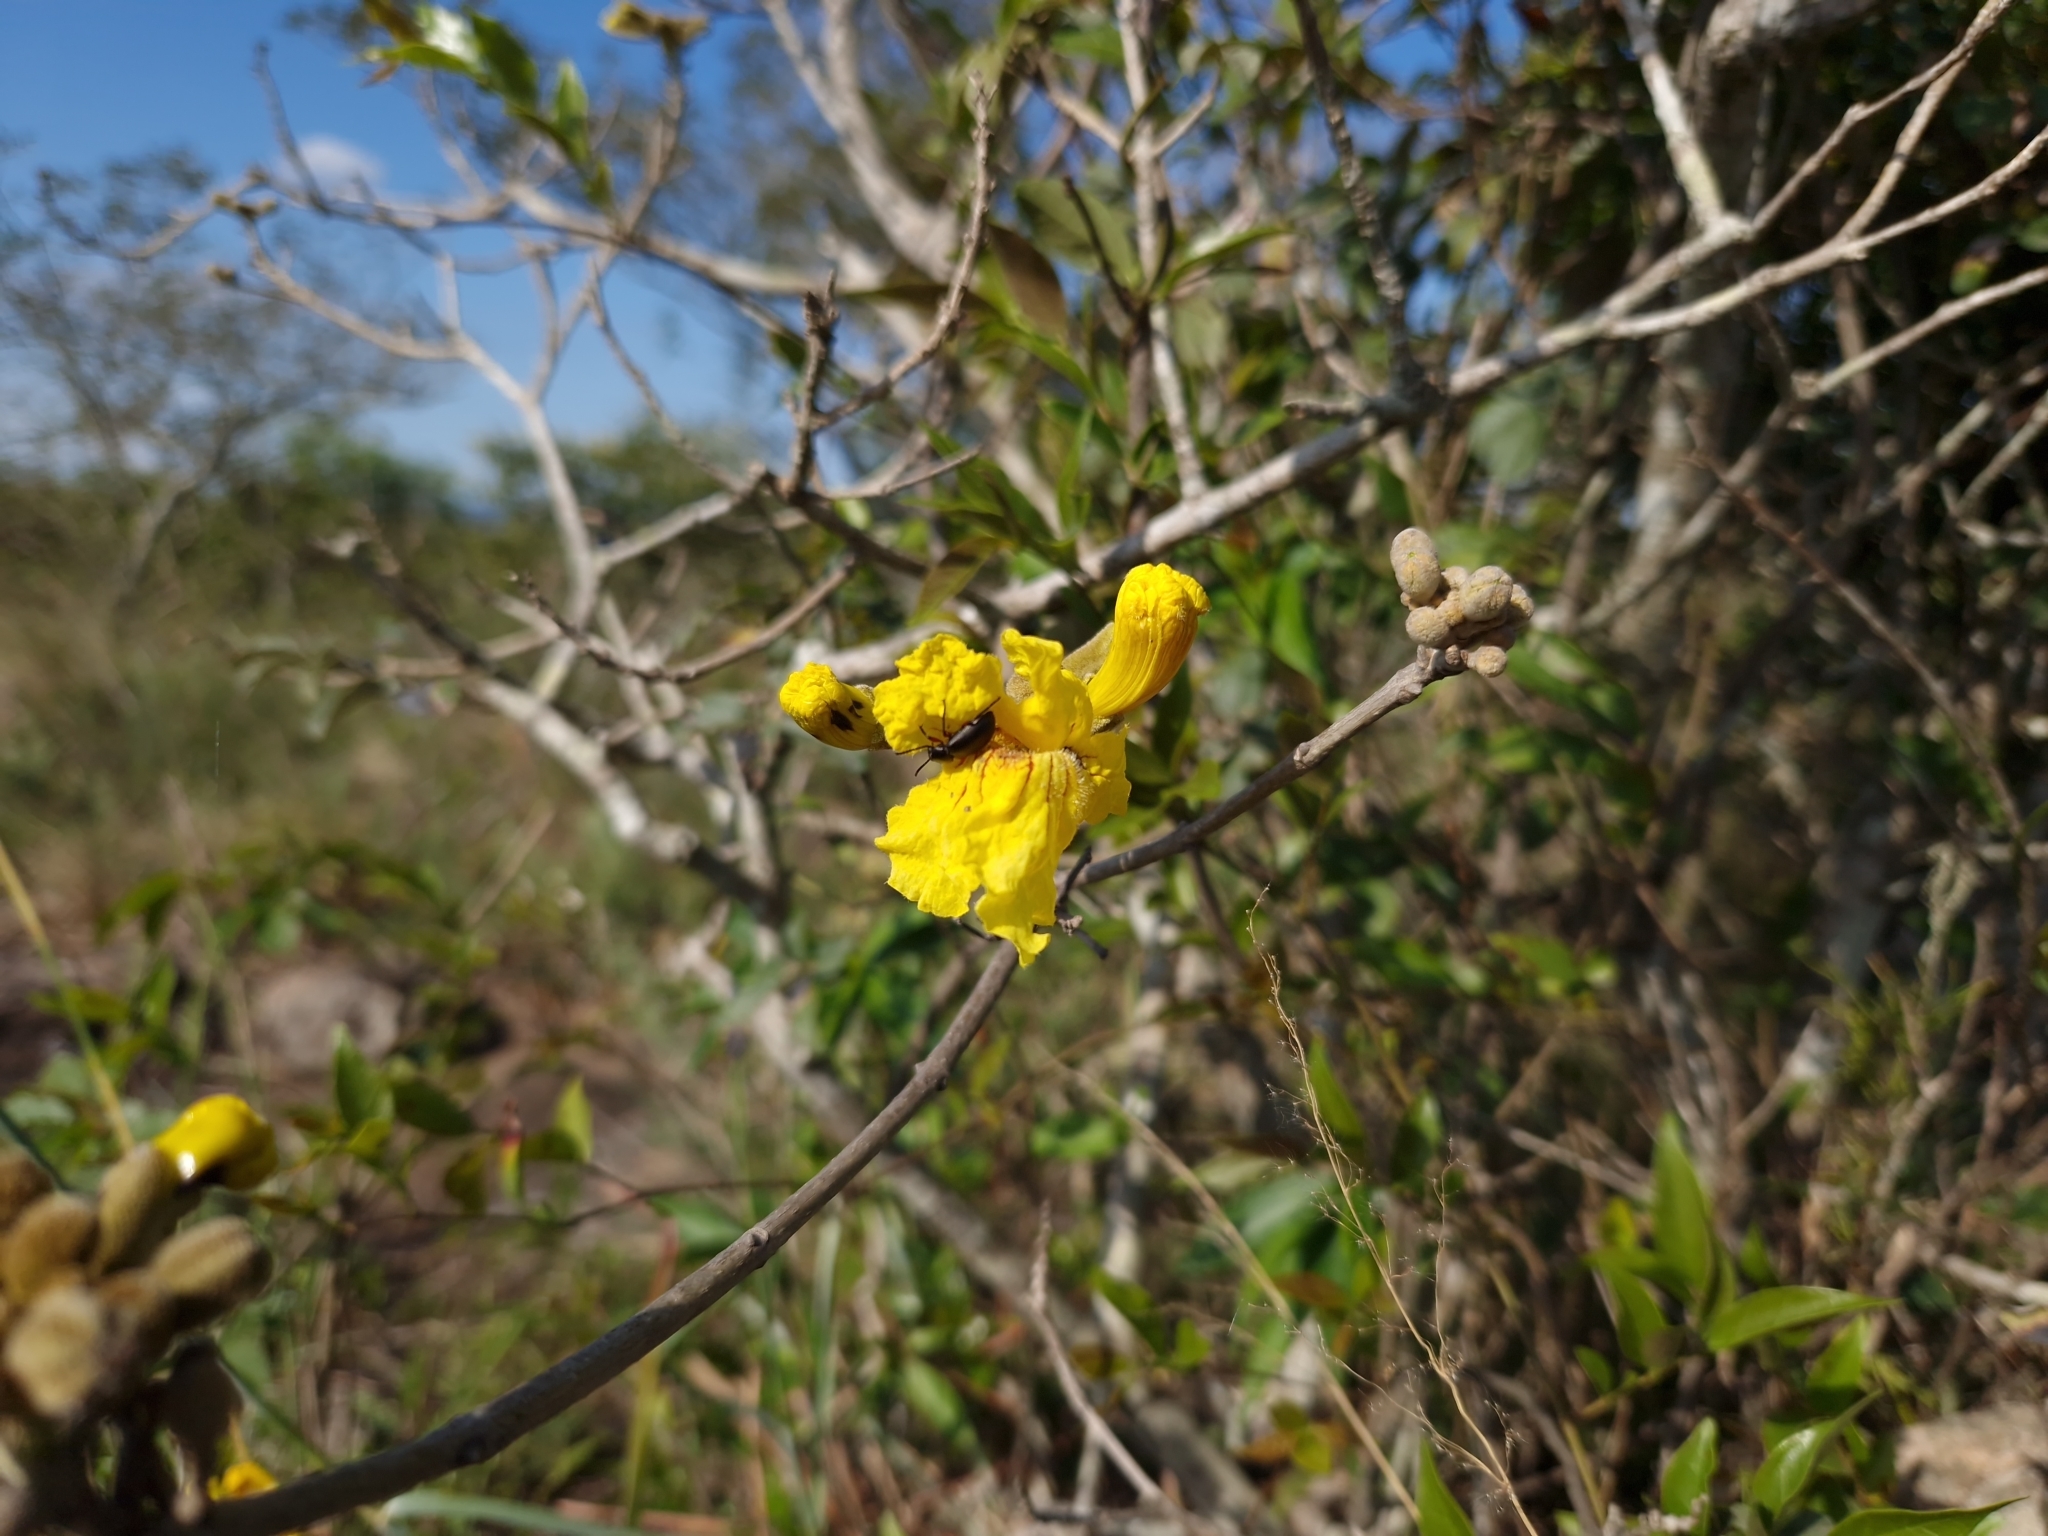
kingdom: Plantae
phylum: Tracheophyta
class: Magnoliopsida
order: Lamiales
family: Bignoniaceae
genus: Handroanthus
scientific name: Handroanthus pulcherrimus
